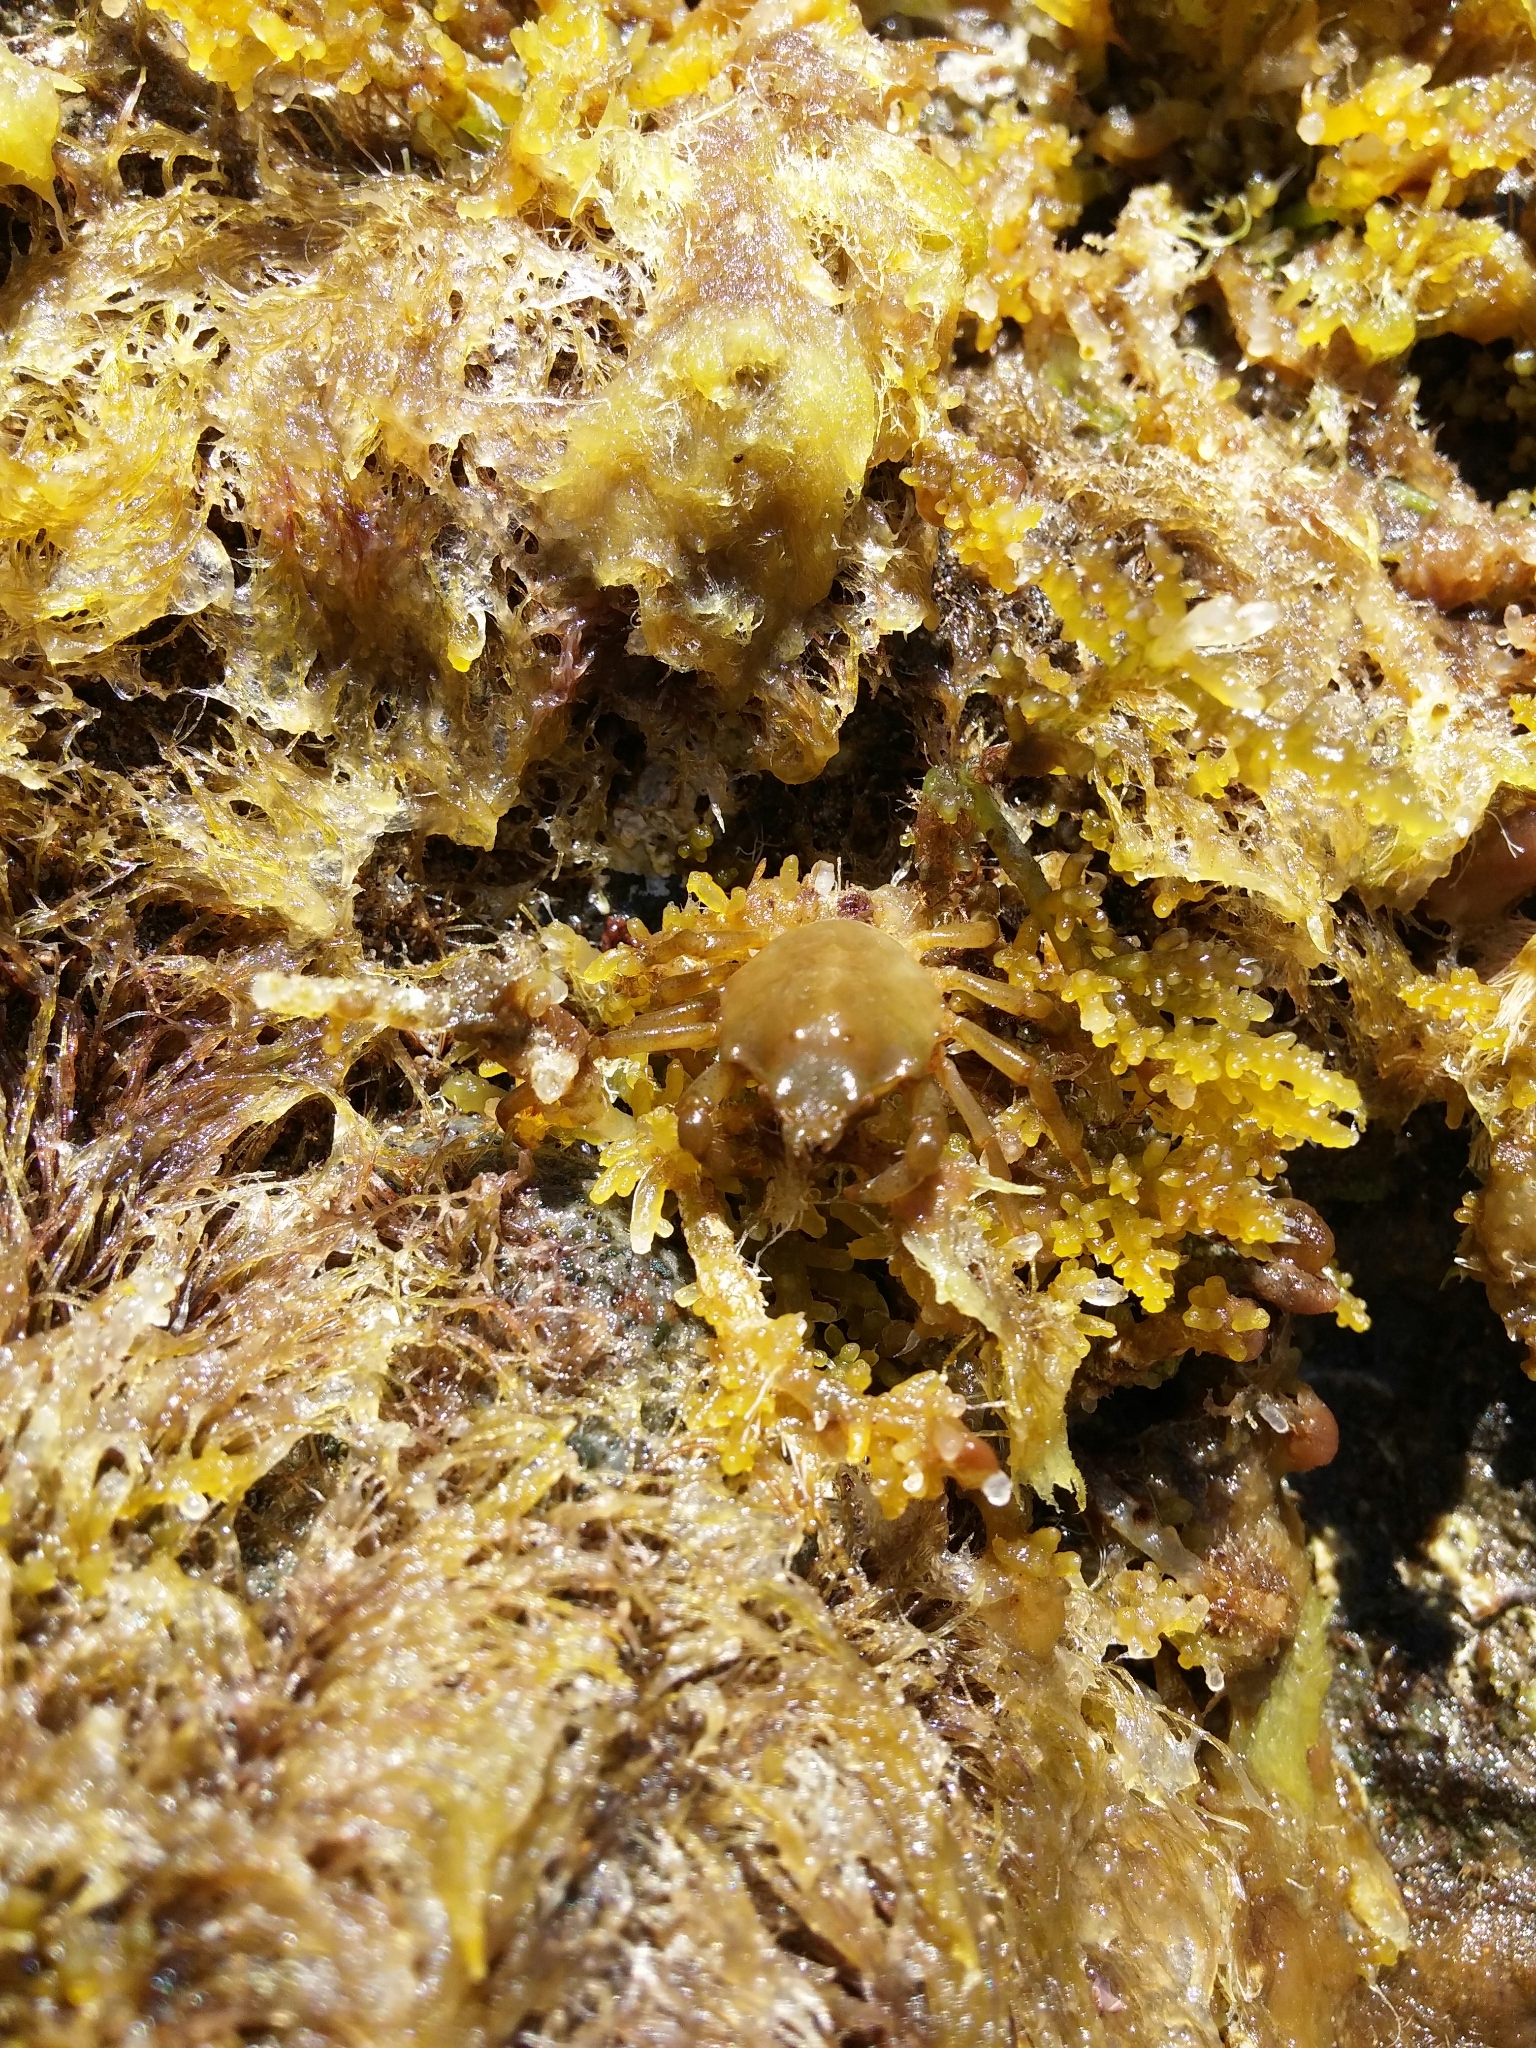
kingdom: Animalia
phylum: Arthropoda
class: Malacostraca
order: Decapoda
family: Epialtidae
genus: Acanthonyx
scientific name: Acanthonyx lunulatus
